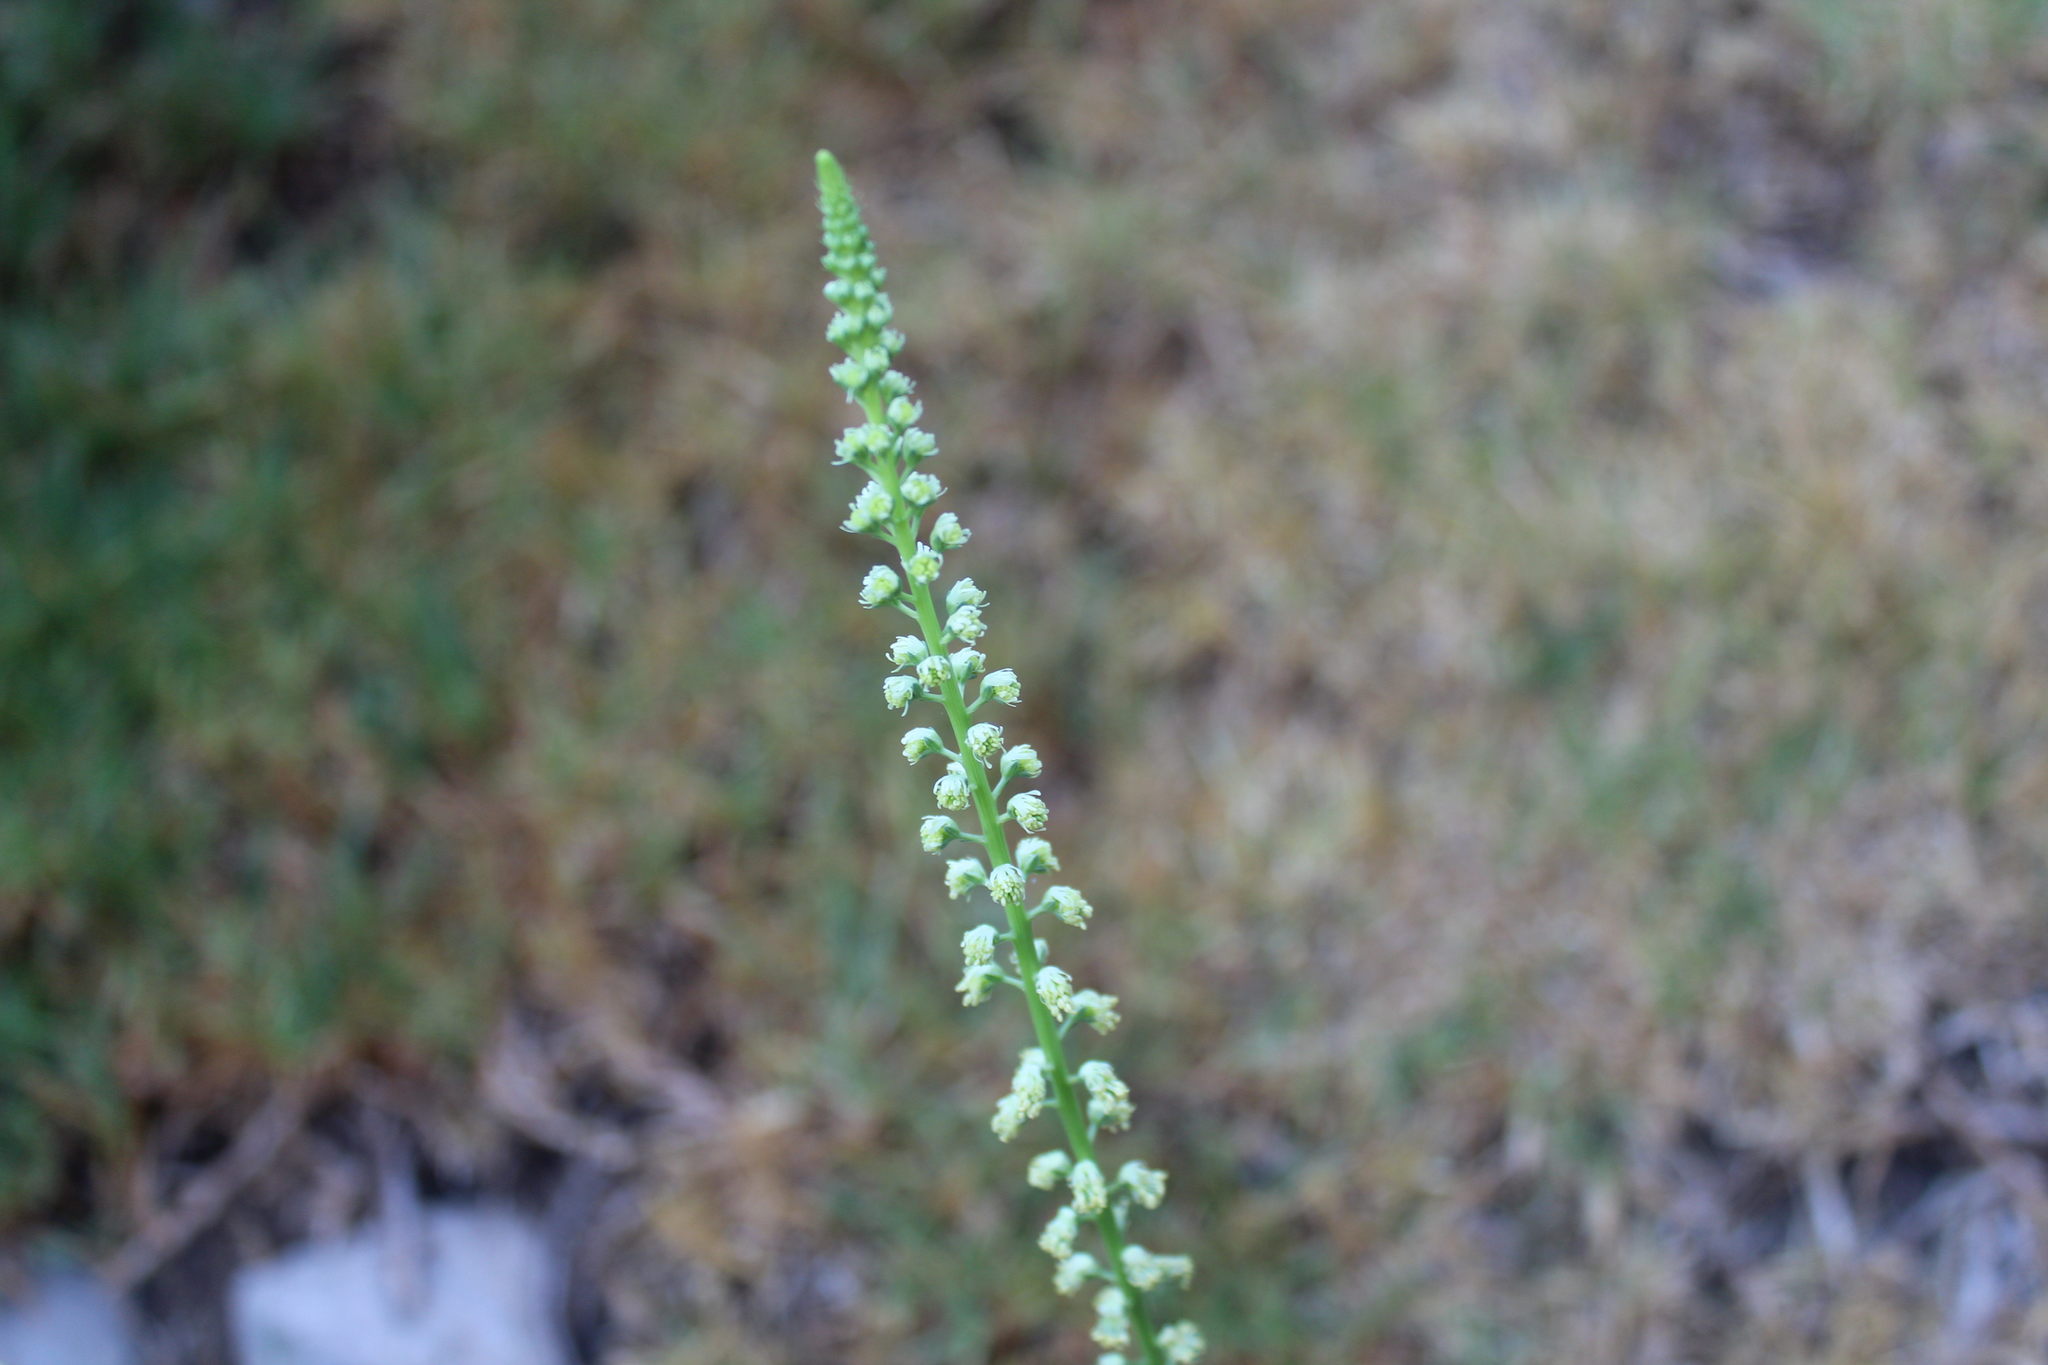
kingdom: Plantae
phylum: Tracheophyta
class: Magnoliopsida
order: Brassicales
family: Resedaceae
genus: Reseda
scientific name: Reseda luteola
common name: Weld
